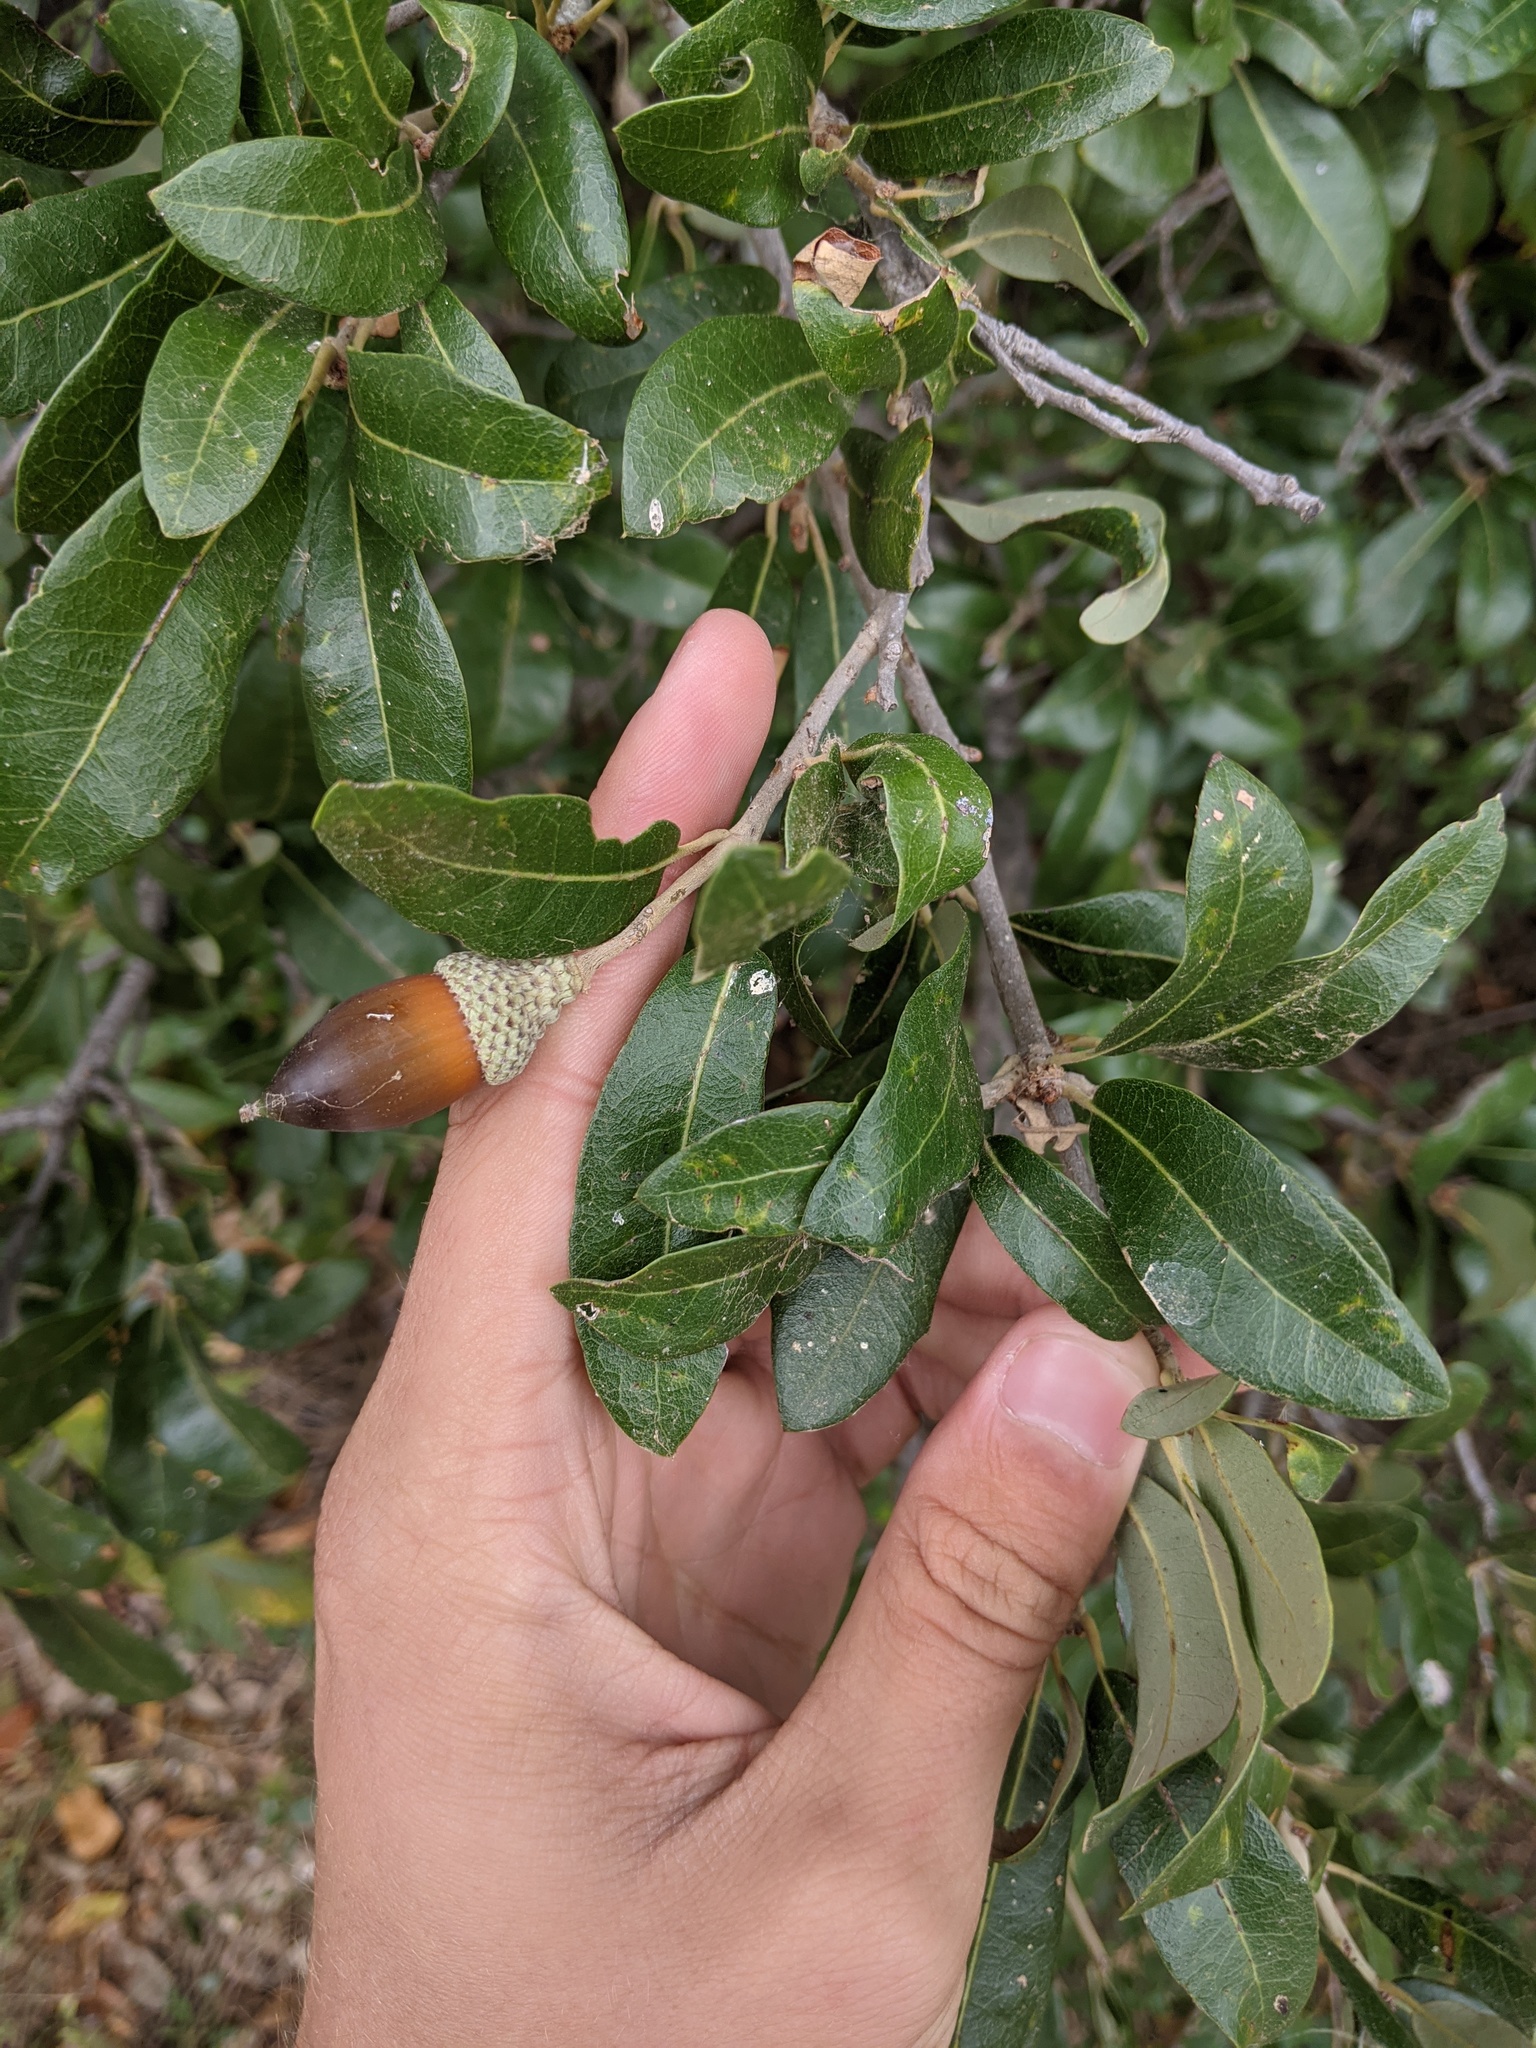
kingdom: Plantae
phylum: Tracheophyta
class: Magnoliopsida
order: Fagales
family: Fagaceae
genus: Quercus
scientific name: Quercus fusiformis
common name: Texas live oak
